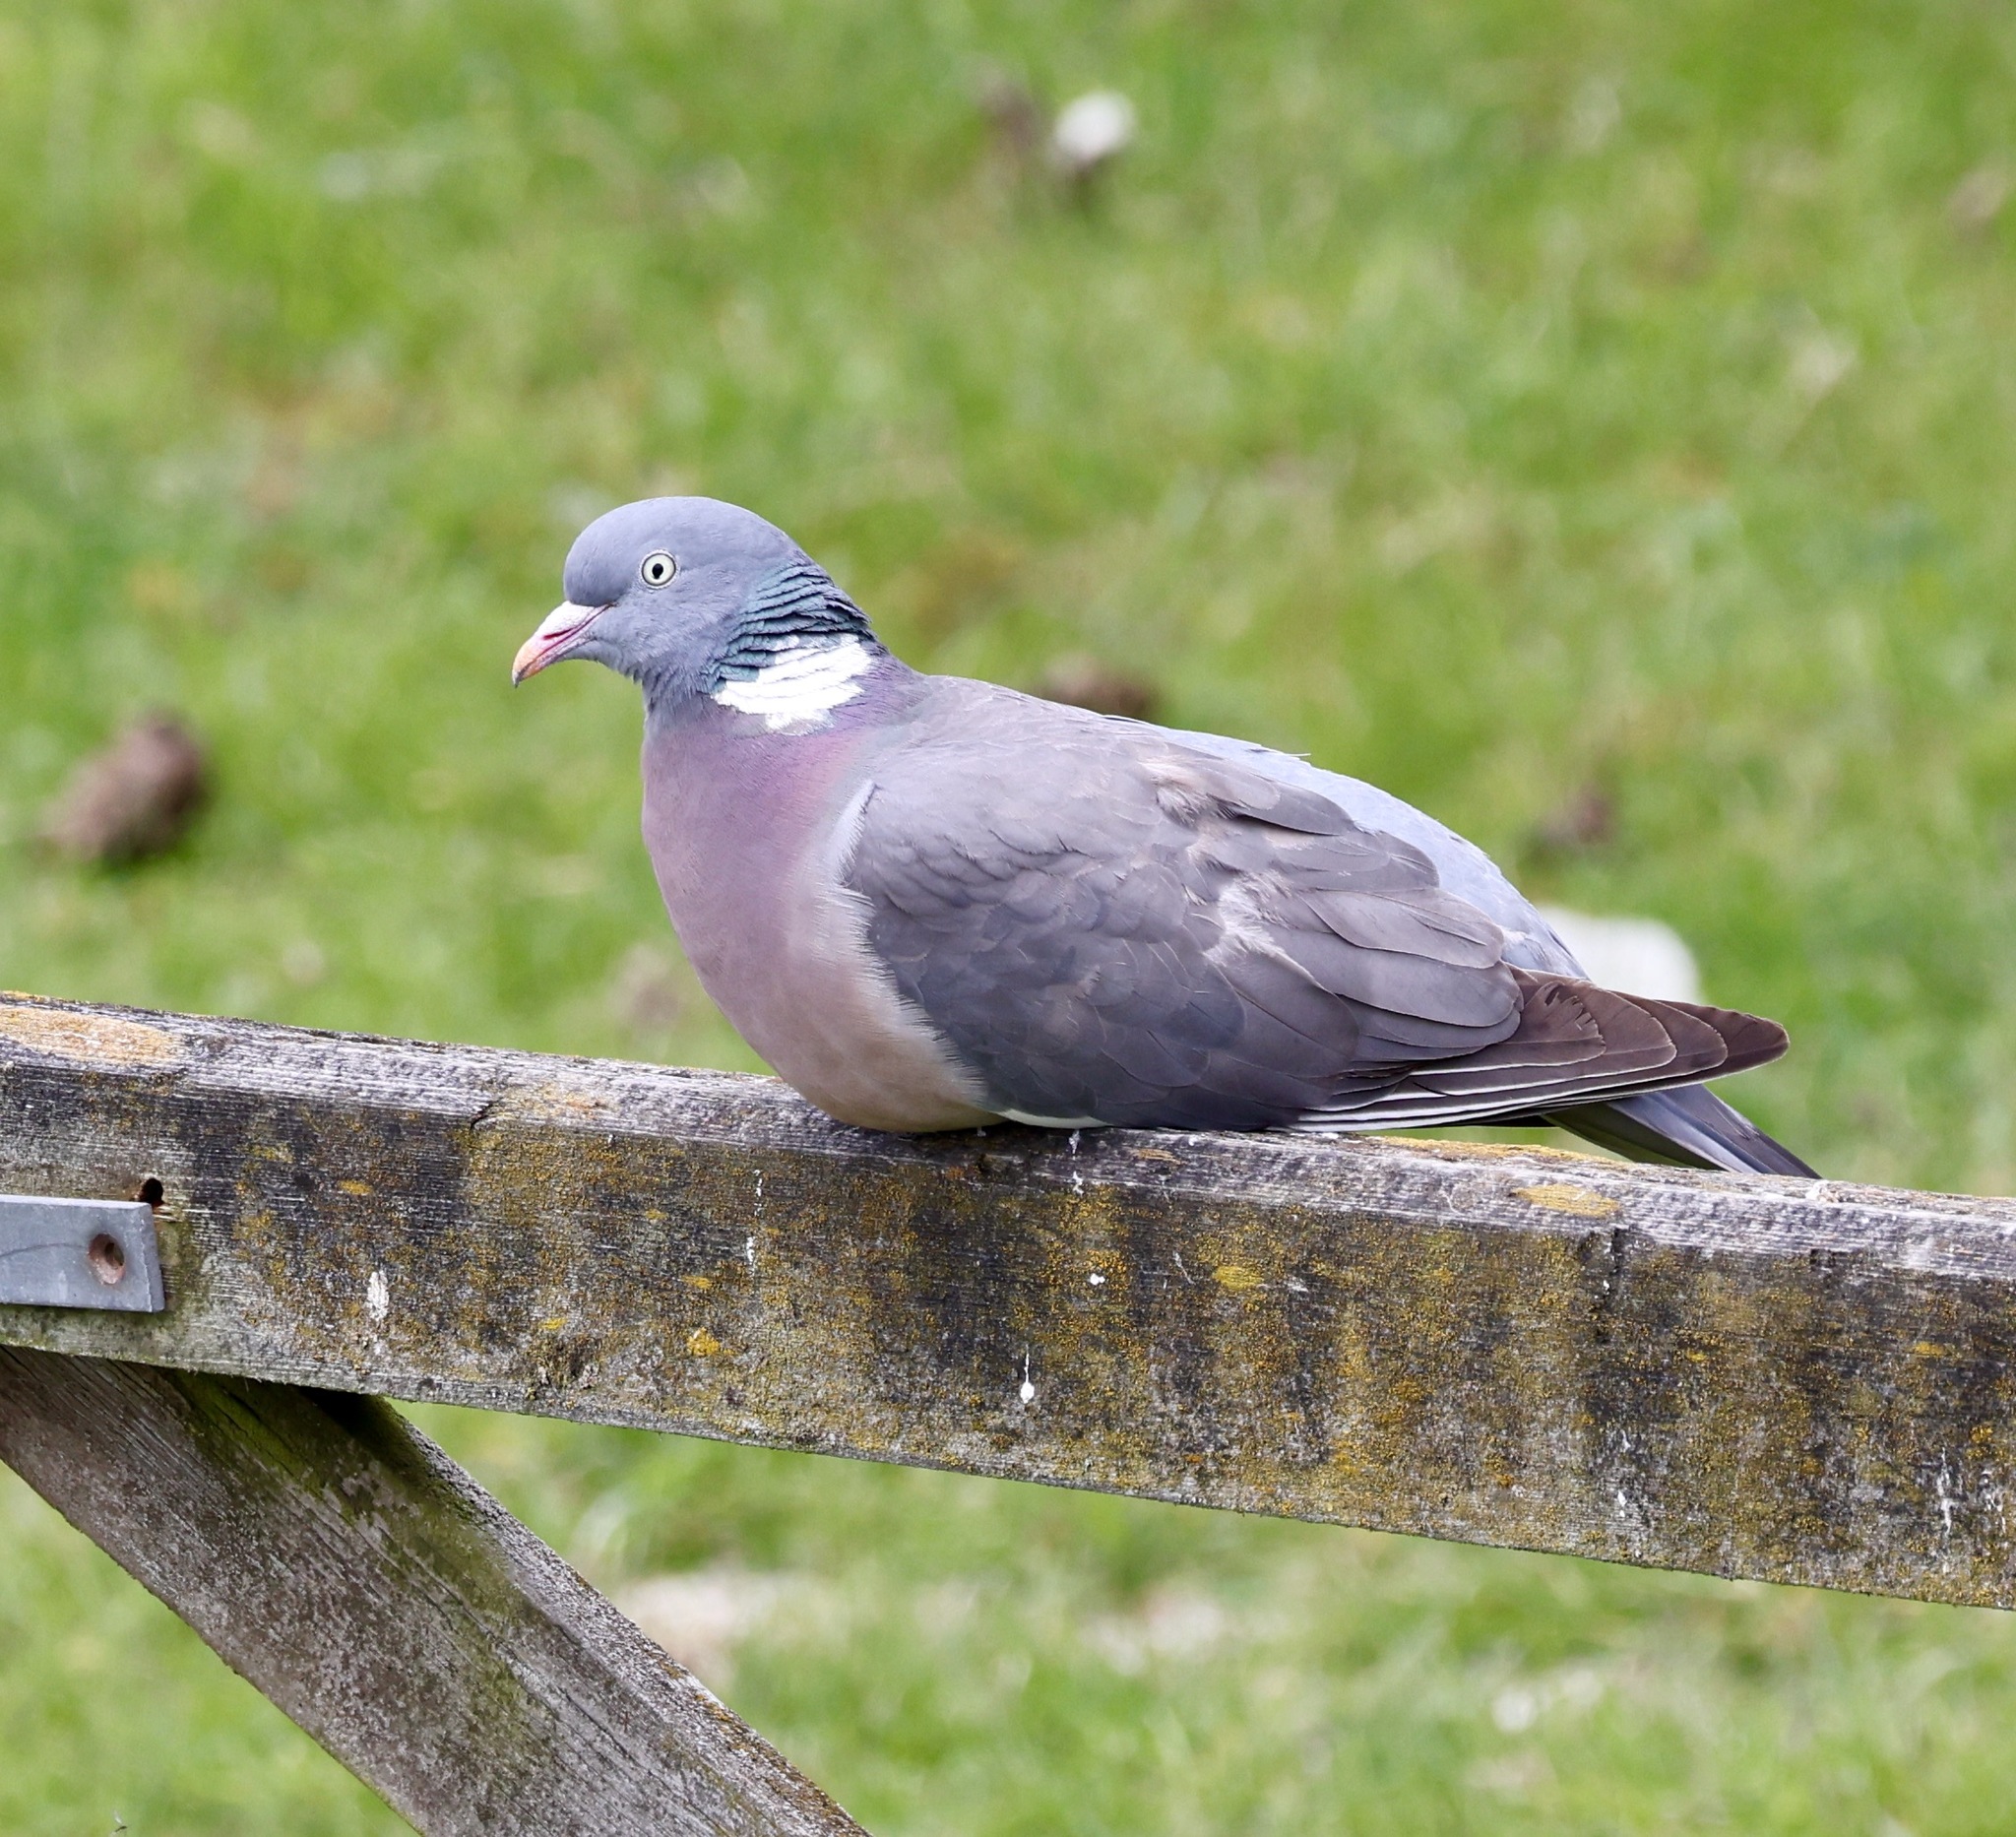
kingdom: Animalia
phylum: Chordata
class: Aves
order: Columbiformes
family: Columbidae
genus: Columba
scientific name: Columba palumbus
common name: Common wood pigeon
